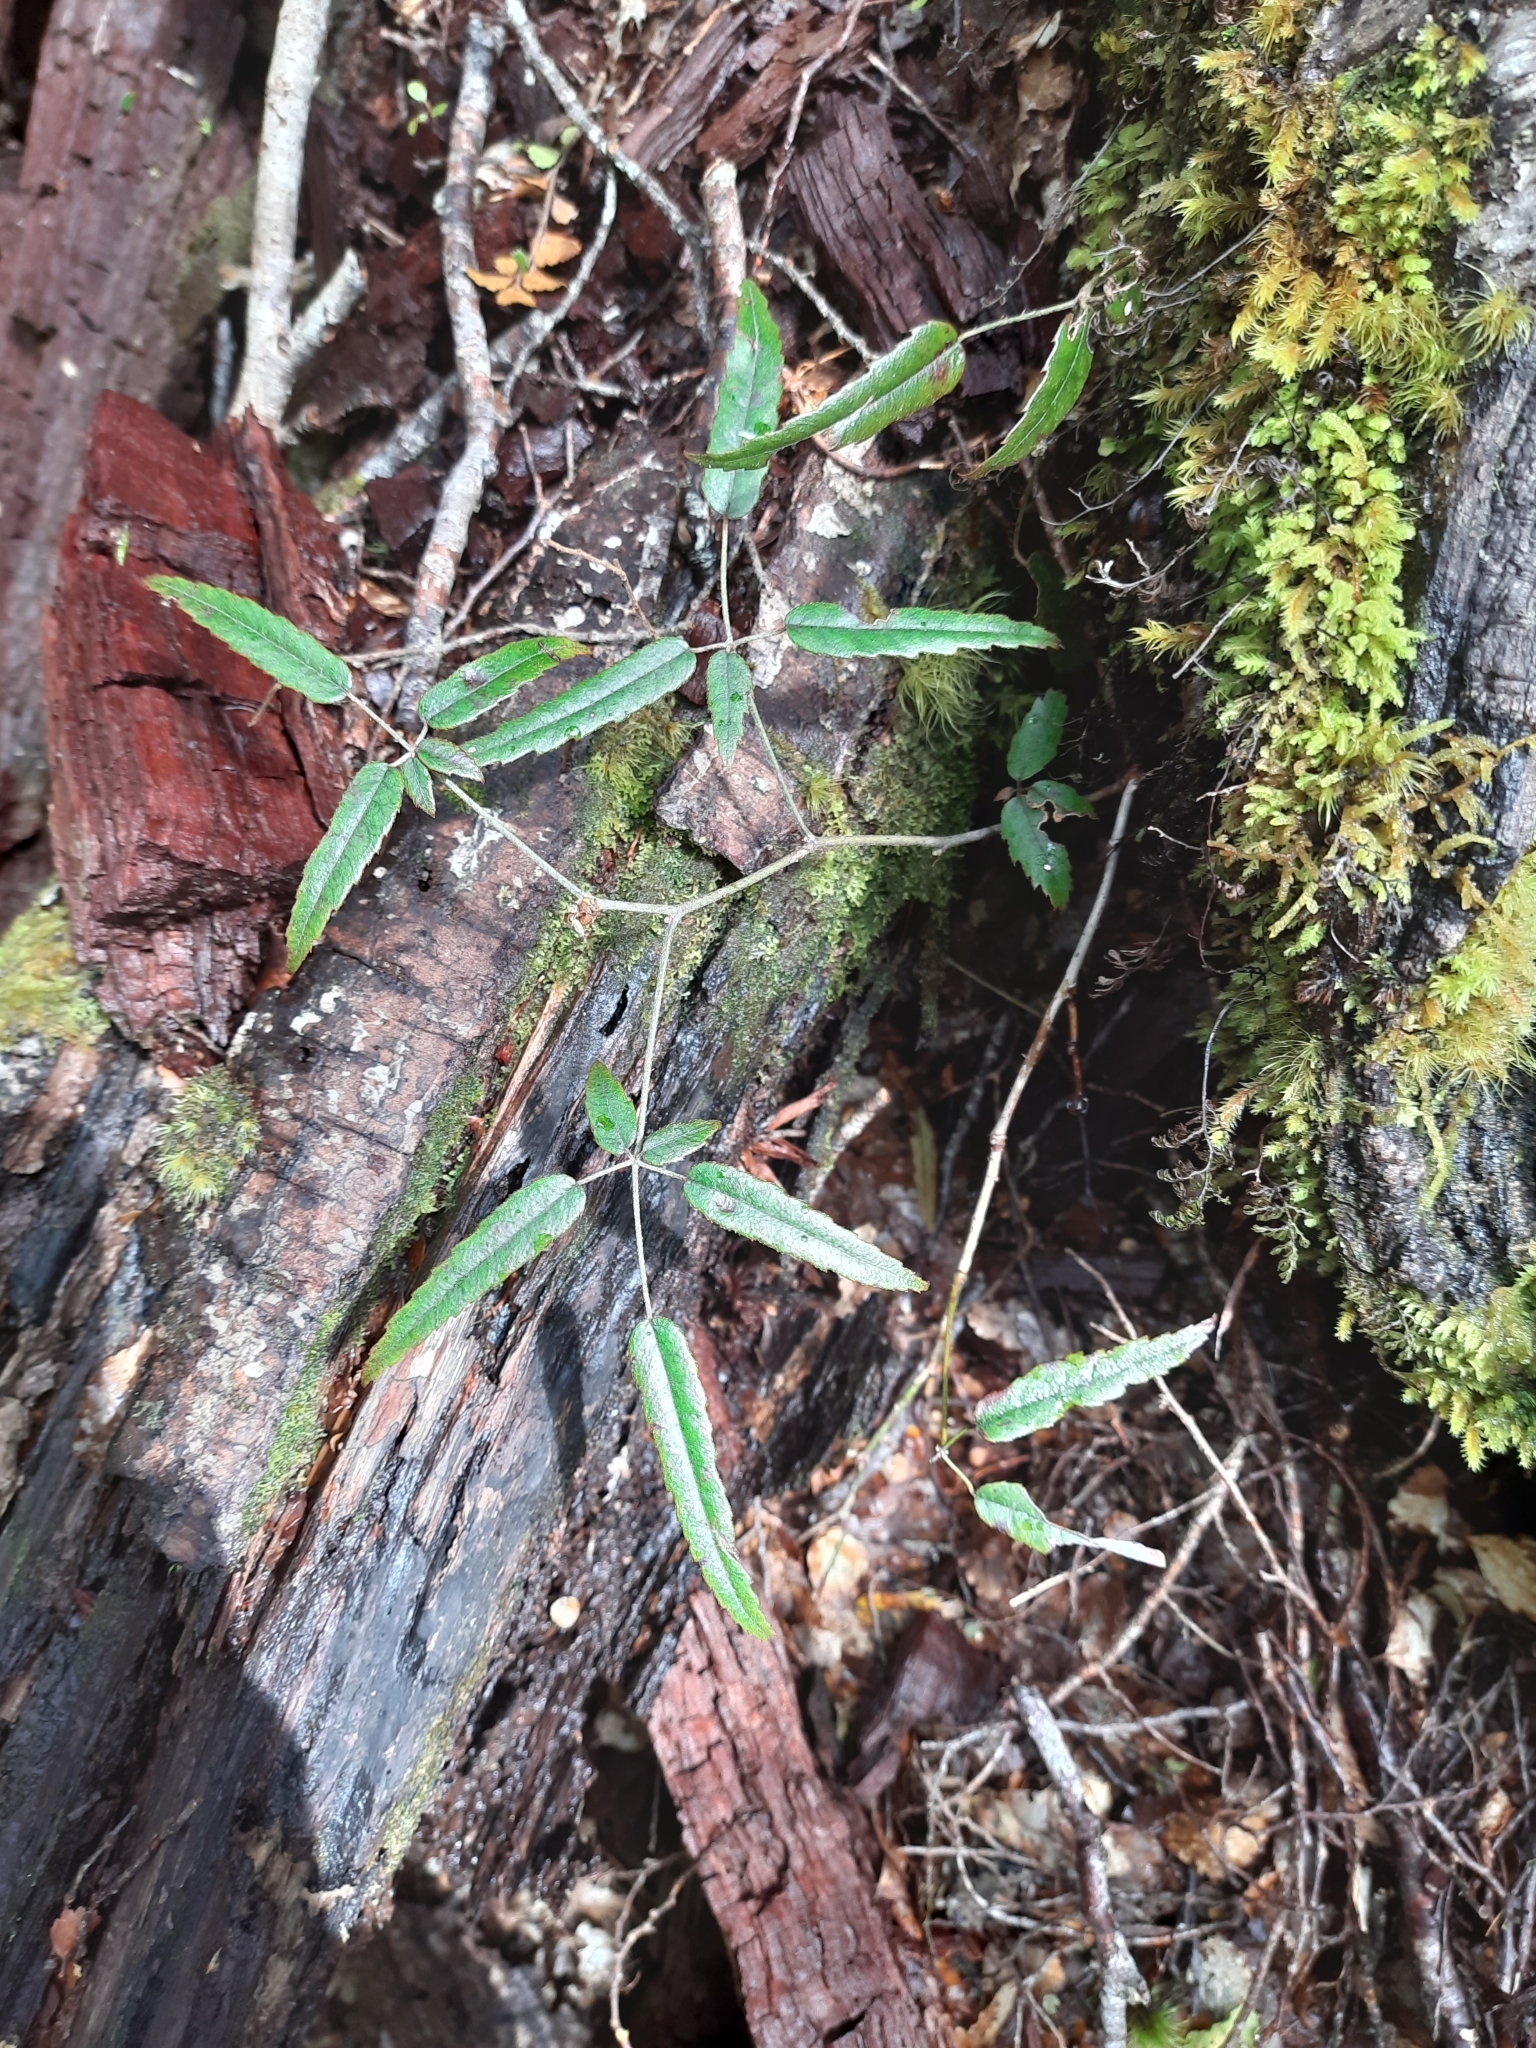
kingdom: Plantae
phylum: Tracheophyta
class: Magnoliopsida
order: Rosales
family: Rosaceae
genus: Rubus
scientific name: Rubus schmidelioides
